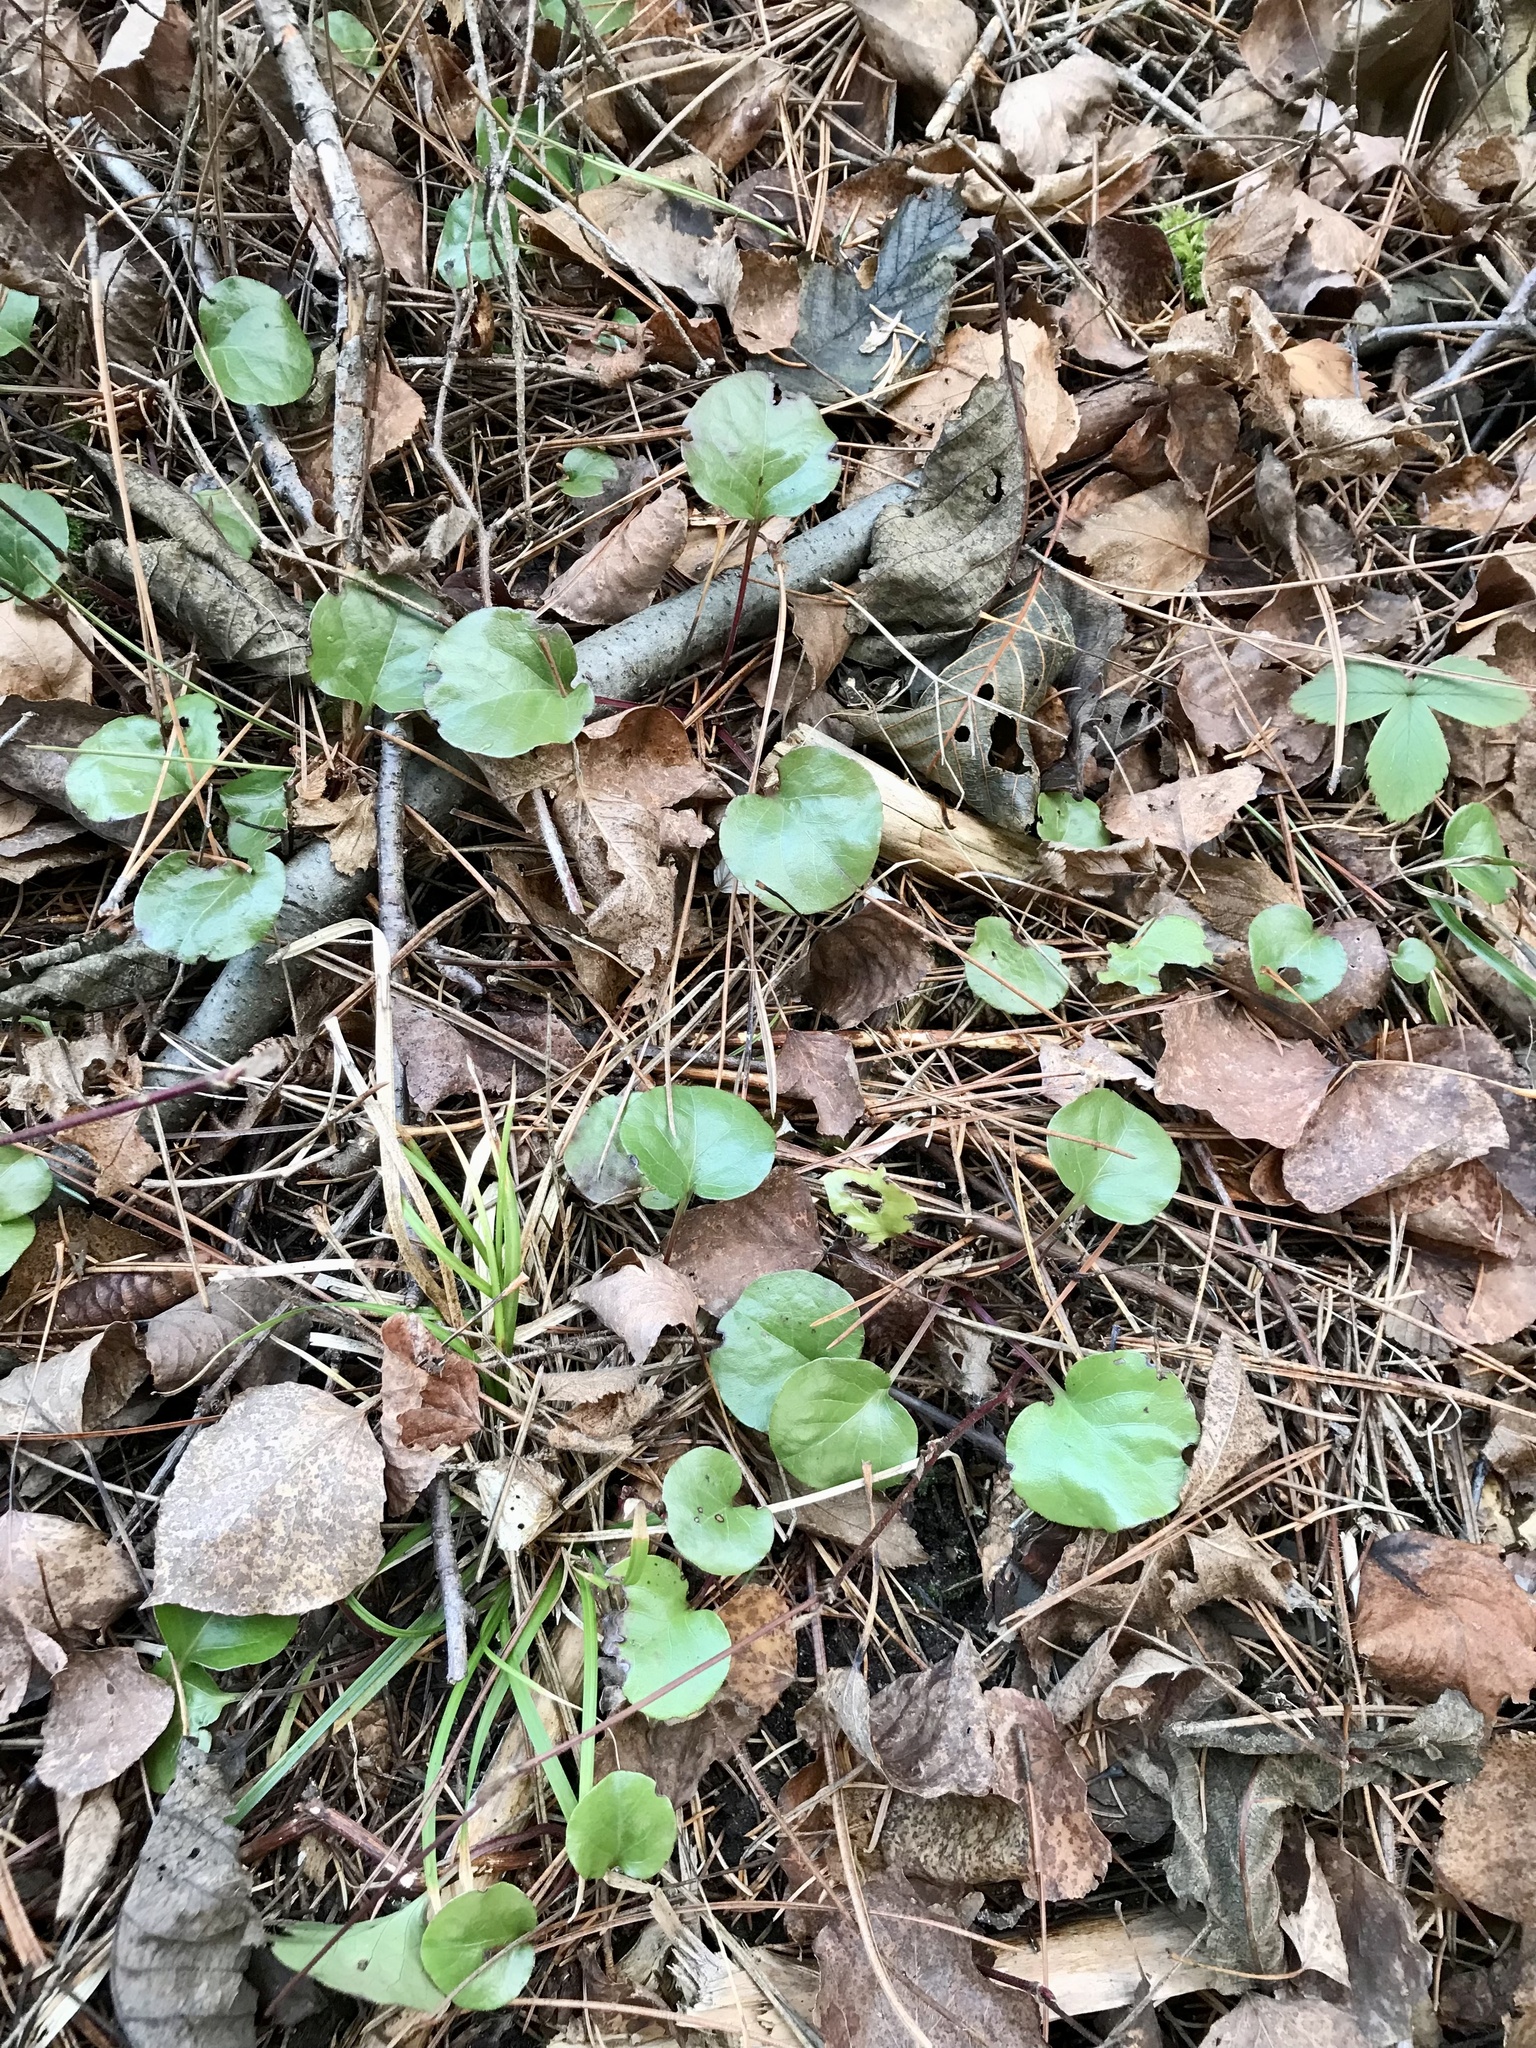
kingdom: Plantae
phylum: Tracheophyta
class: Magnoliopsida
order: Ericales
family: Ericaceae
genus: Pyrola
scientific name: Pyrola asarifolia
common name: Bog wintergreen
